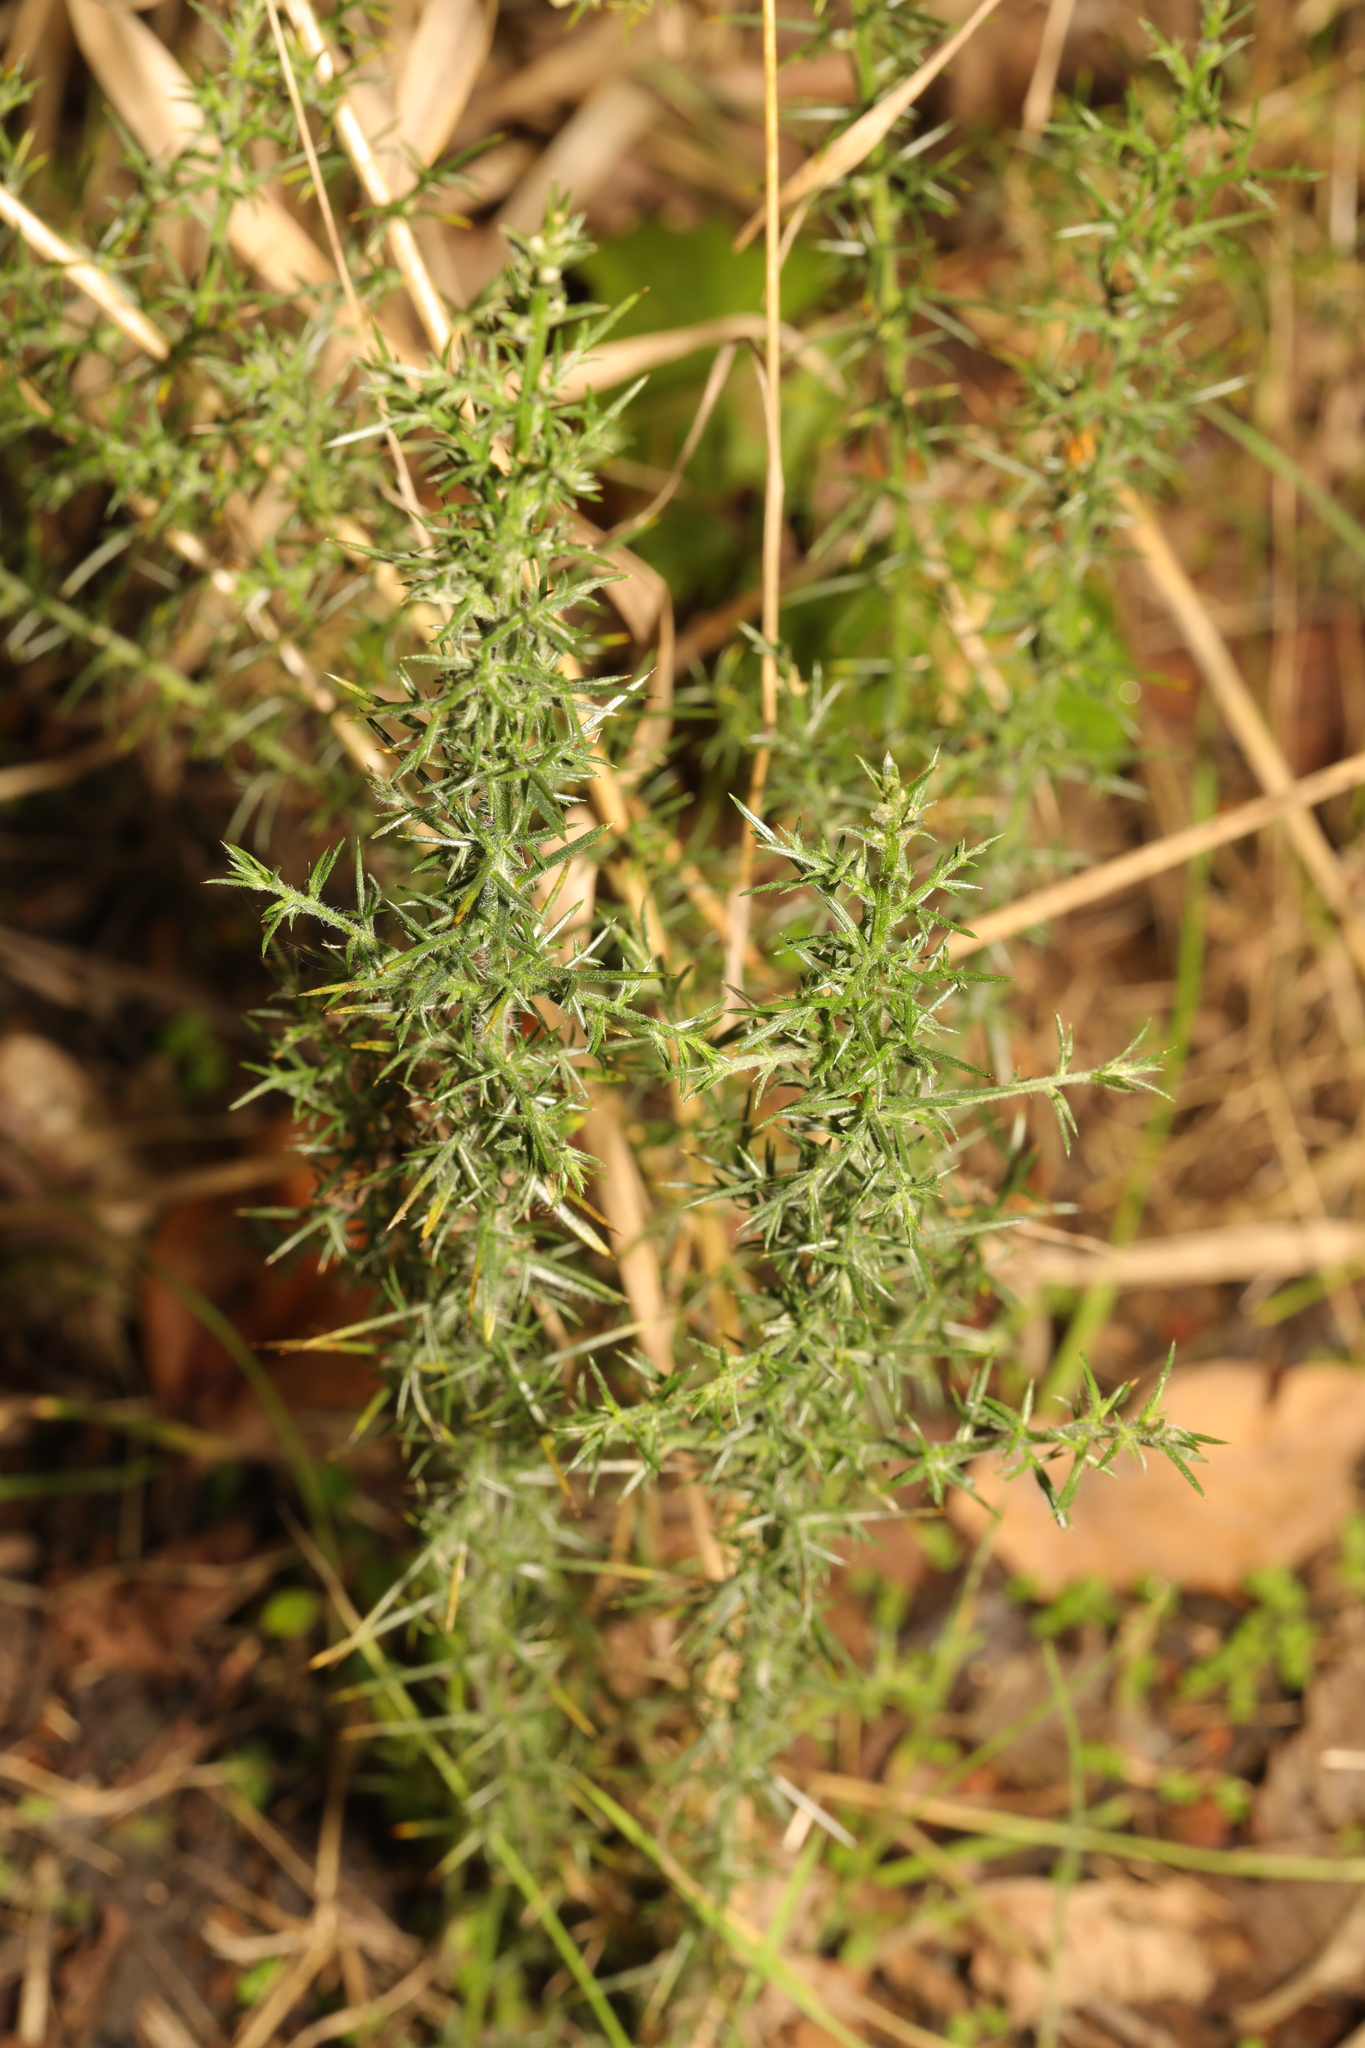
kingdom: Plantae
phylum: Tracheophyta
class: Magnoliopsida
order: Fabales
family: Fabaceae
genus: Ulex
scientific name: Ulex europaeus
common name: Common gorse
